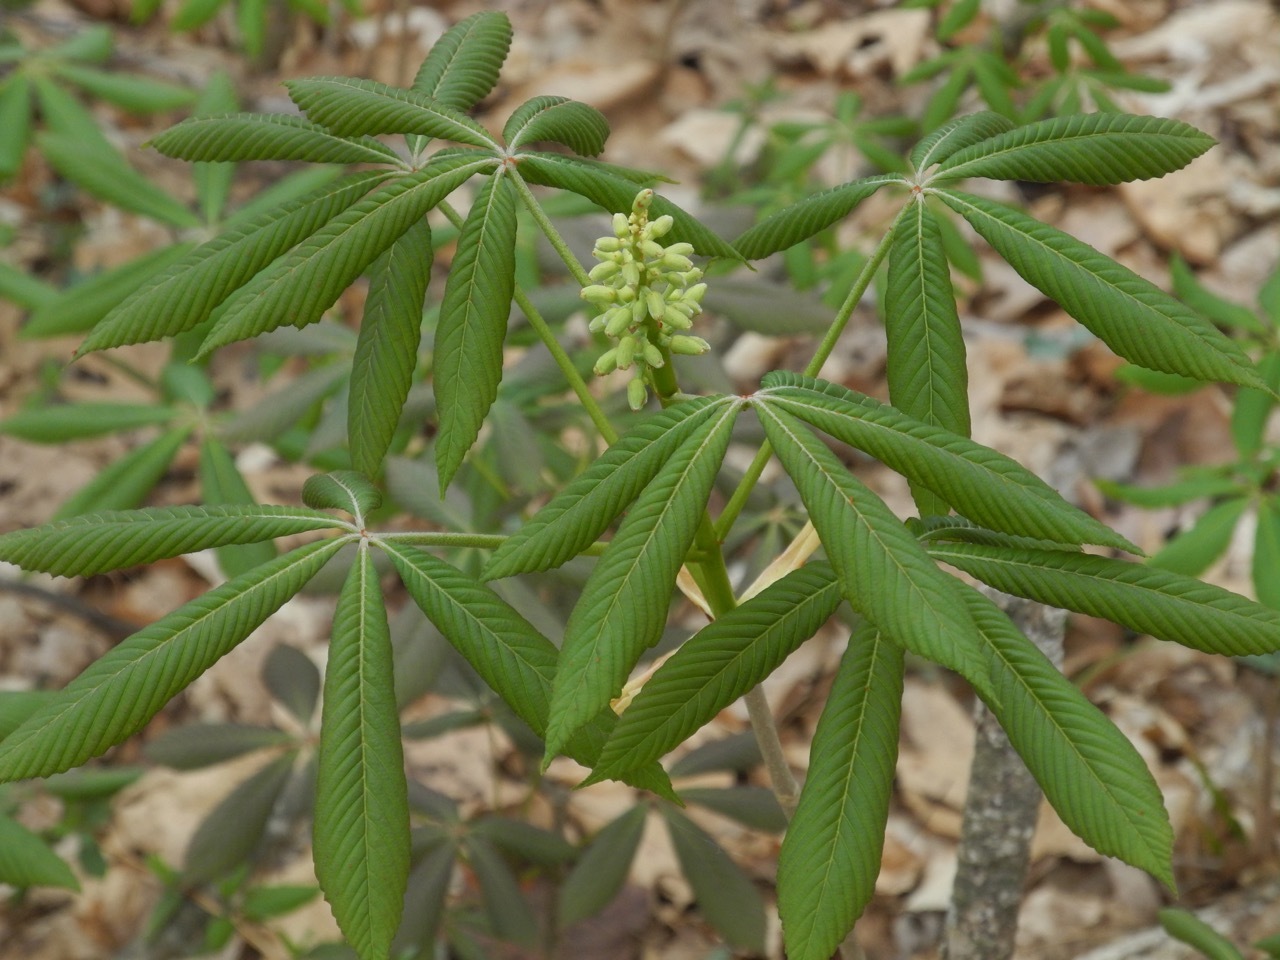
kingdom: Plantae
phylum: Tracheophyta
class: Magnoliopsida
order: Sapindales
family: Sapindaceae
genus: Aesculus
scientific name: Aesculus sylvatica
